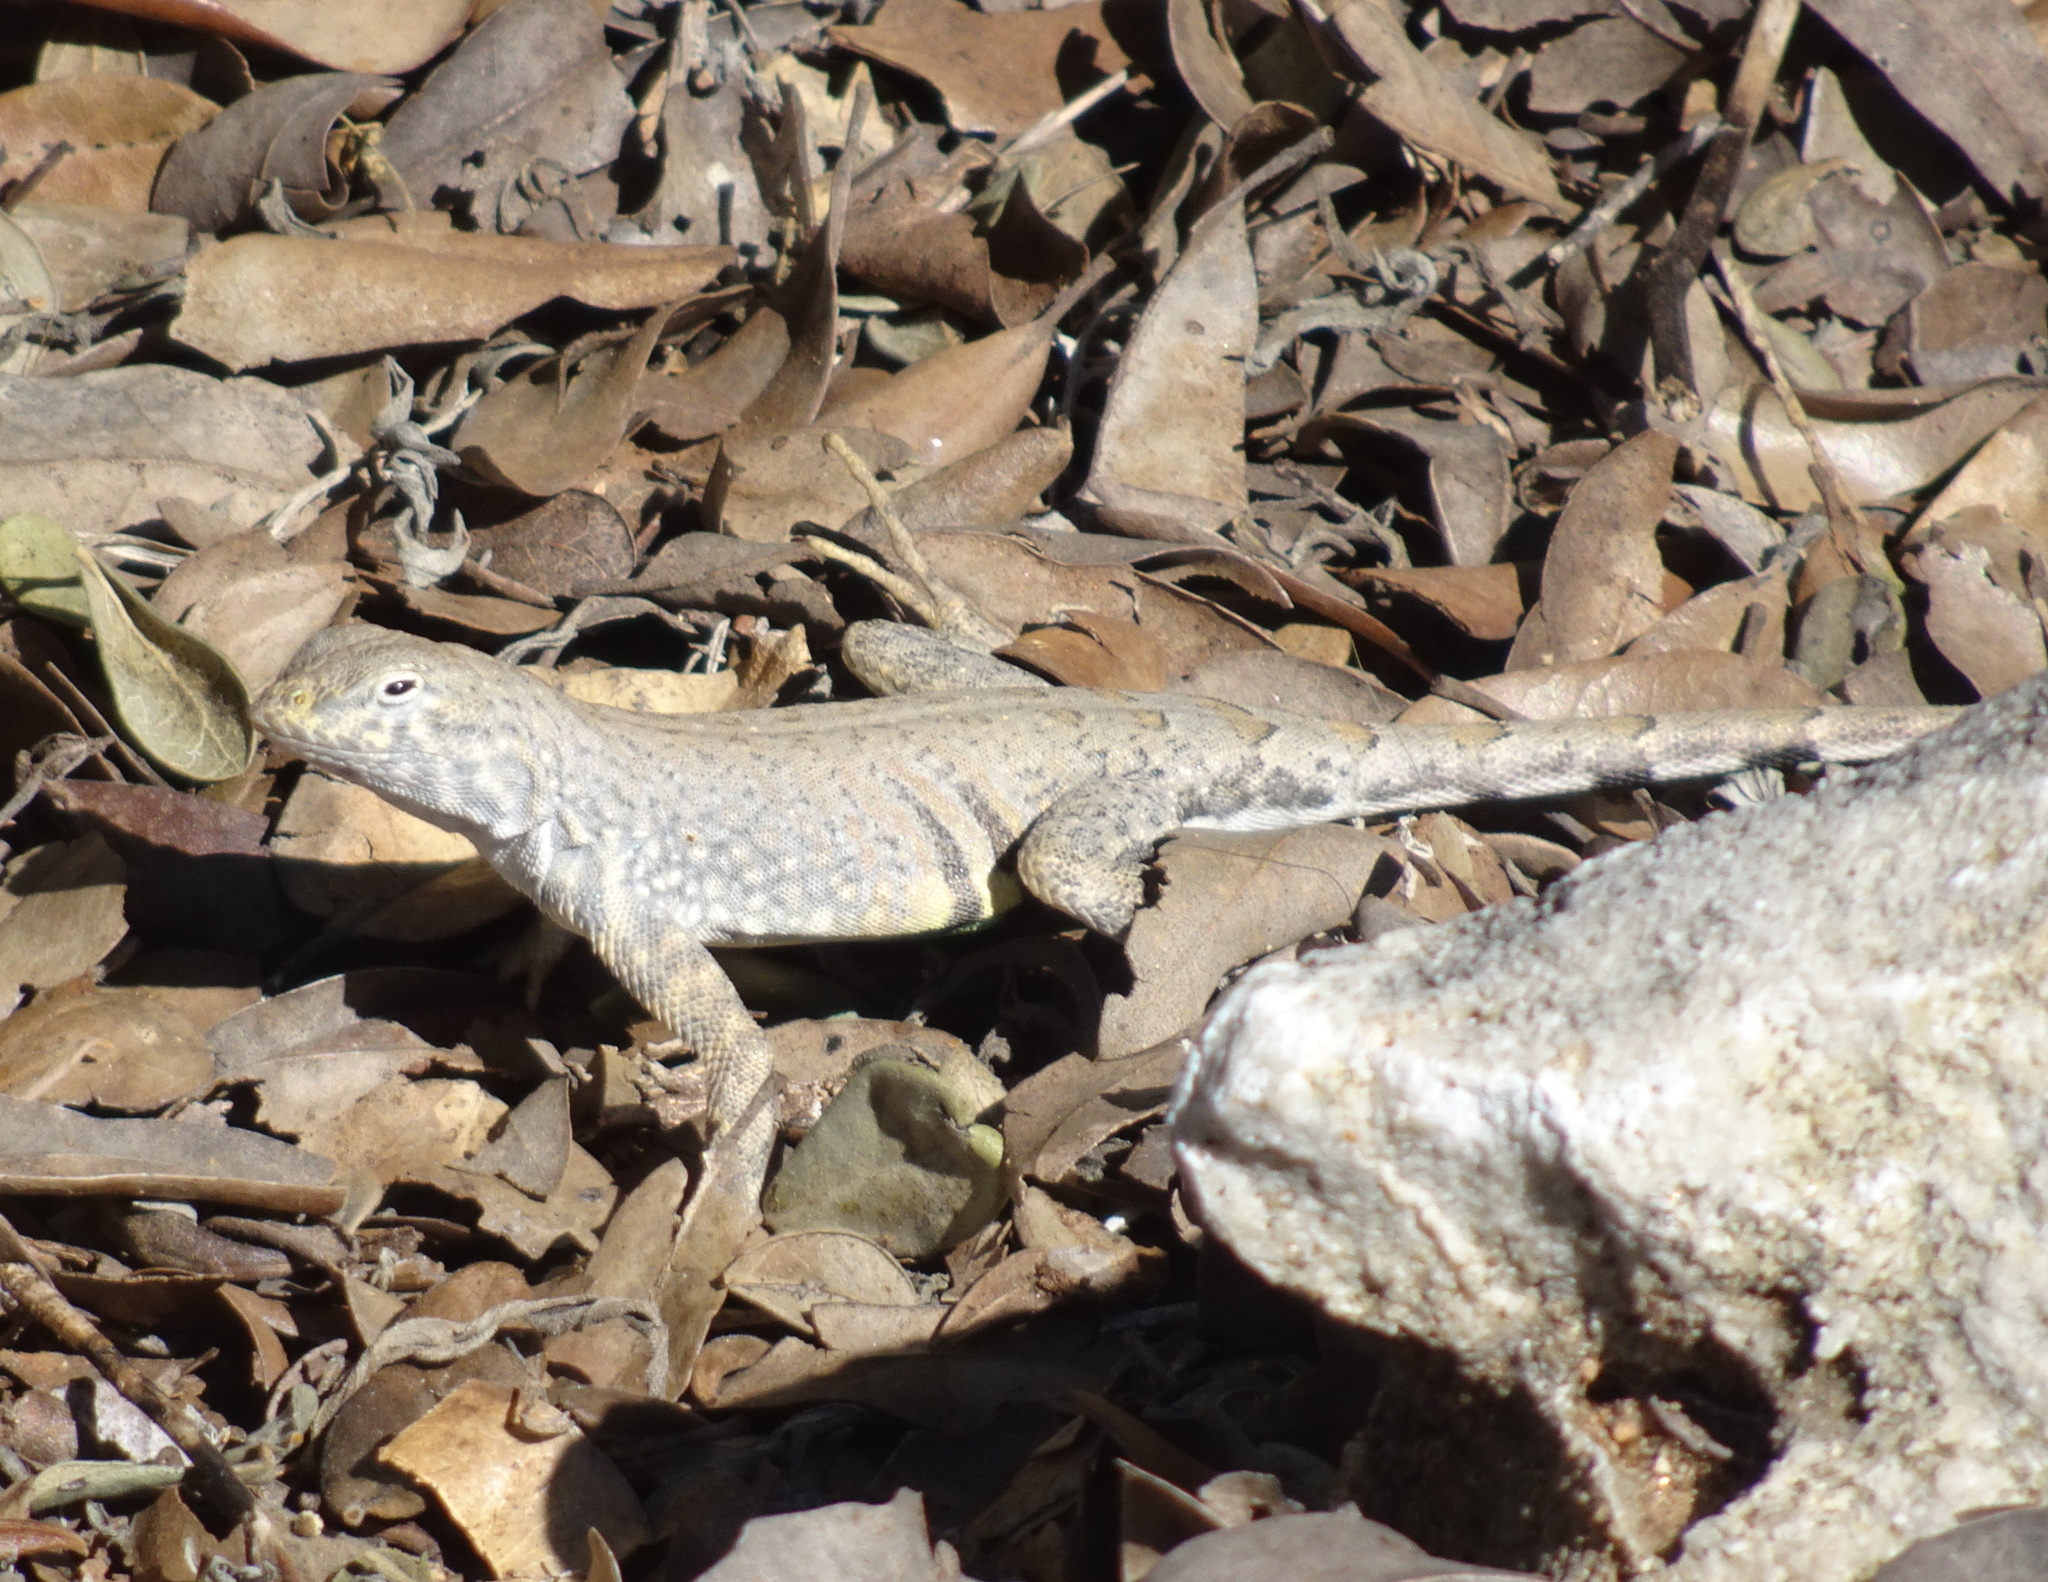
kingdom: Animalia
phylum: Chordata
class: Squamata
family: Phrynosomatidae
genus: Cophosaurus
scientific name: Cophosaurus texanus
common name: Greater earless lizard
